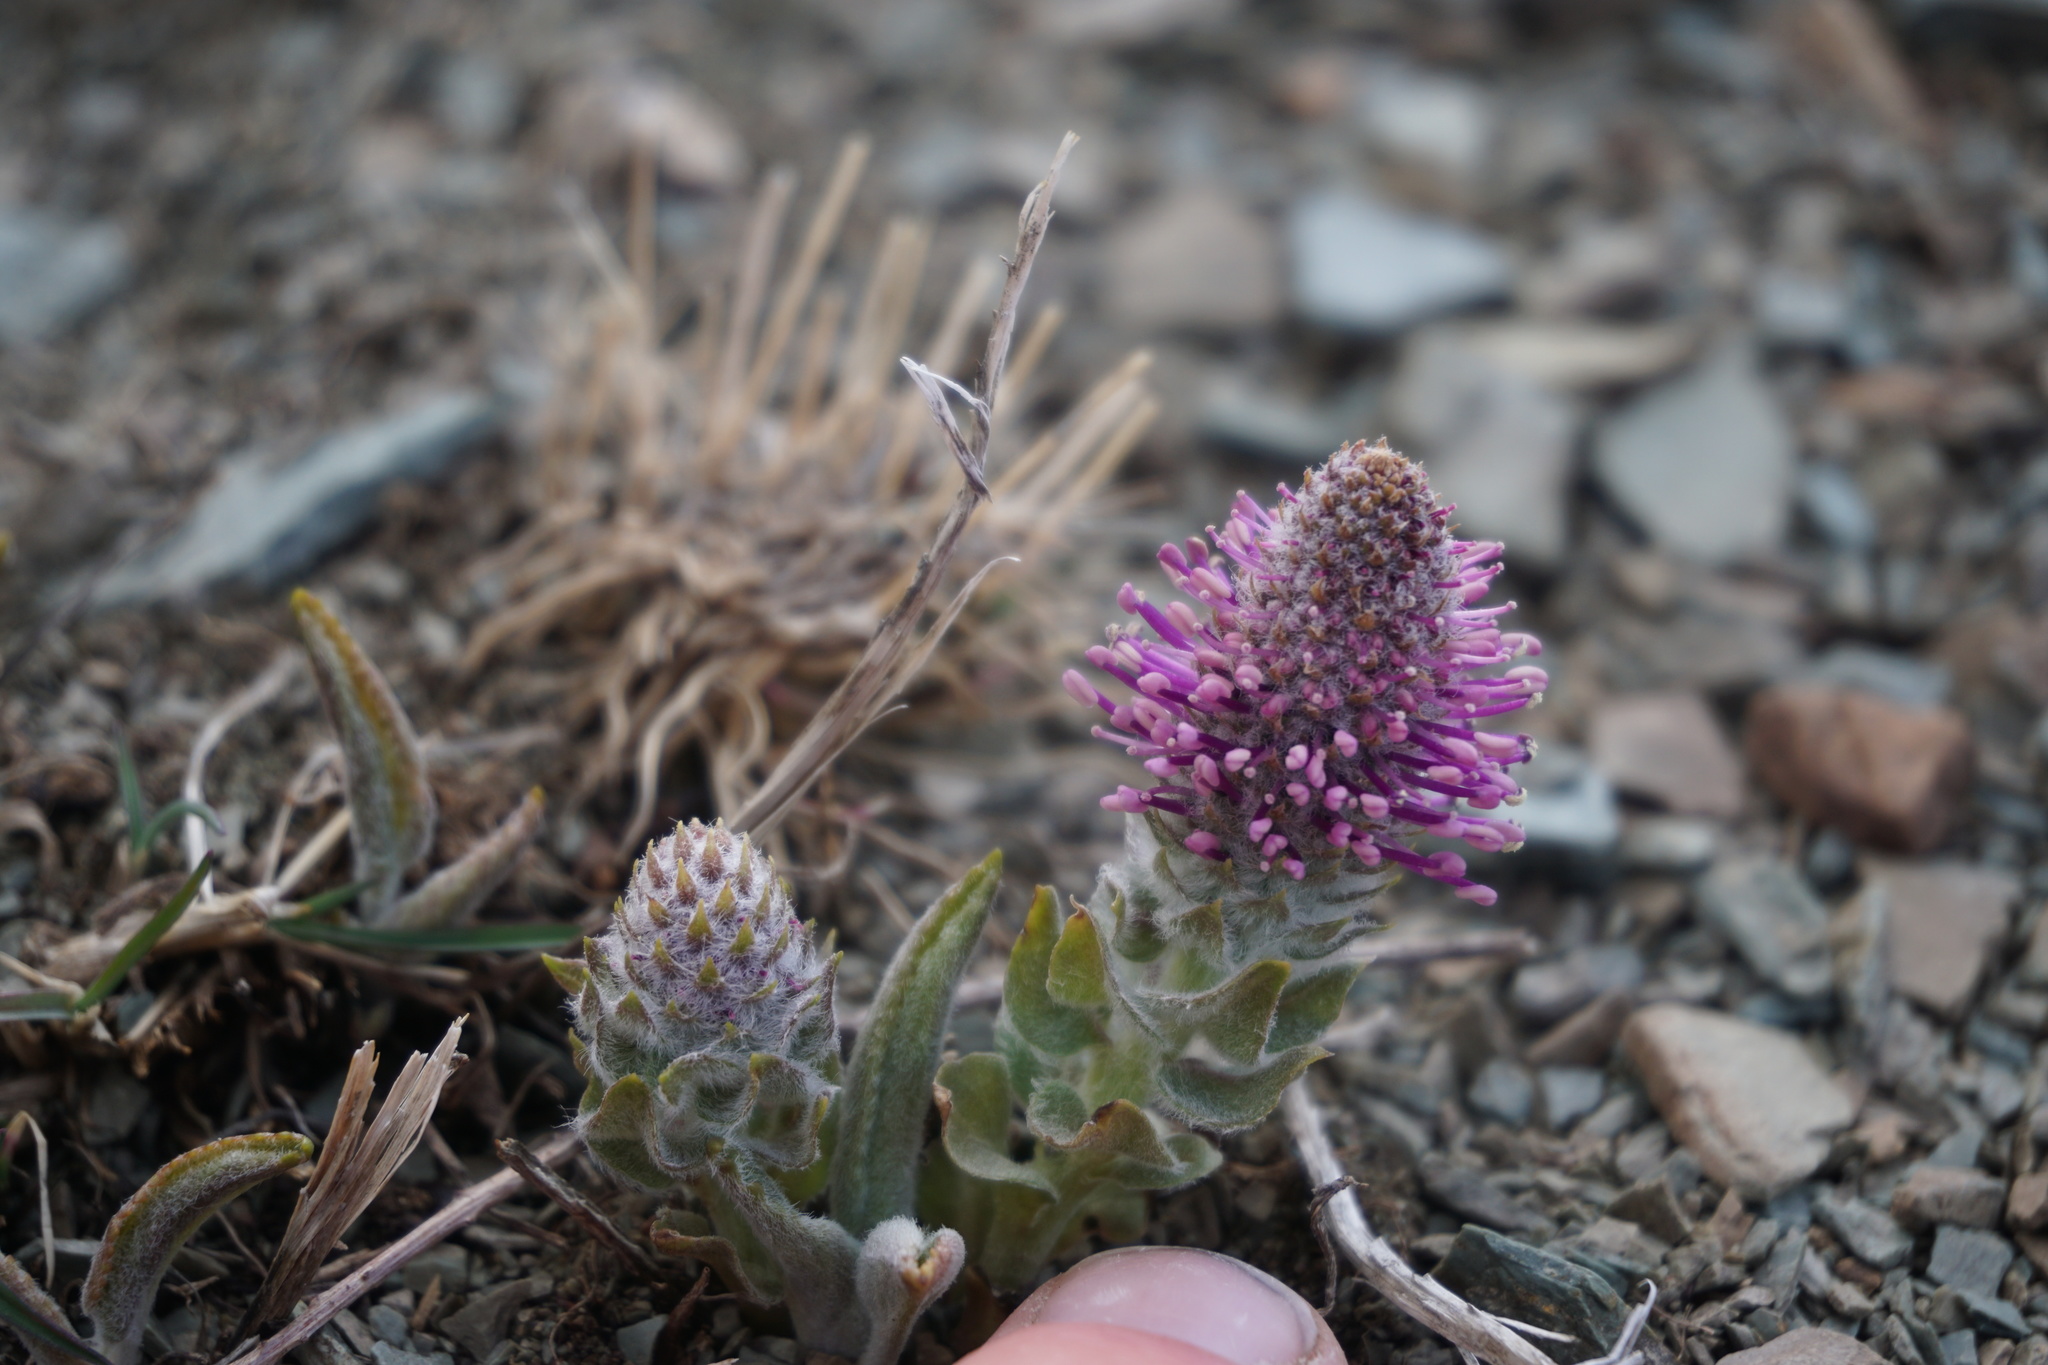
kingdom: Plantae
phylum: Tracheophyta
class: Magnoliopsida
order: Lamiales
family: Plantaginaceae
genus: Synthyris
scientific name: Synthyris wyomingensis
